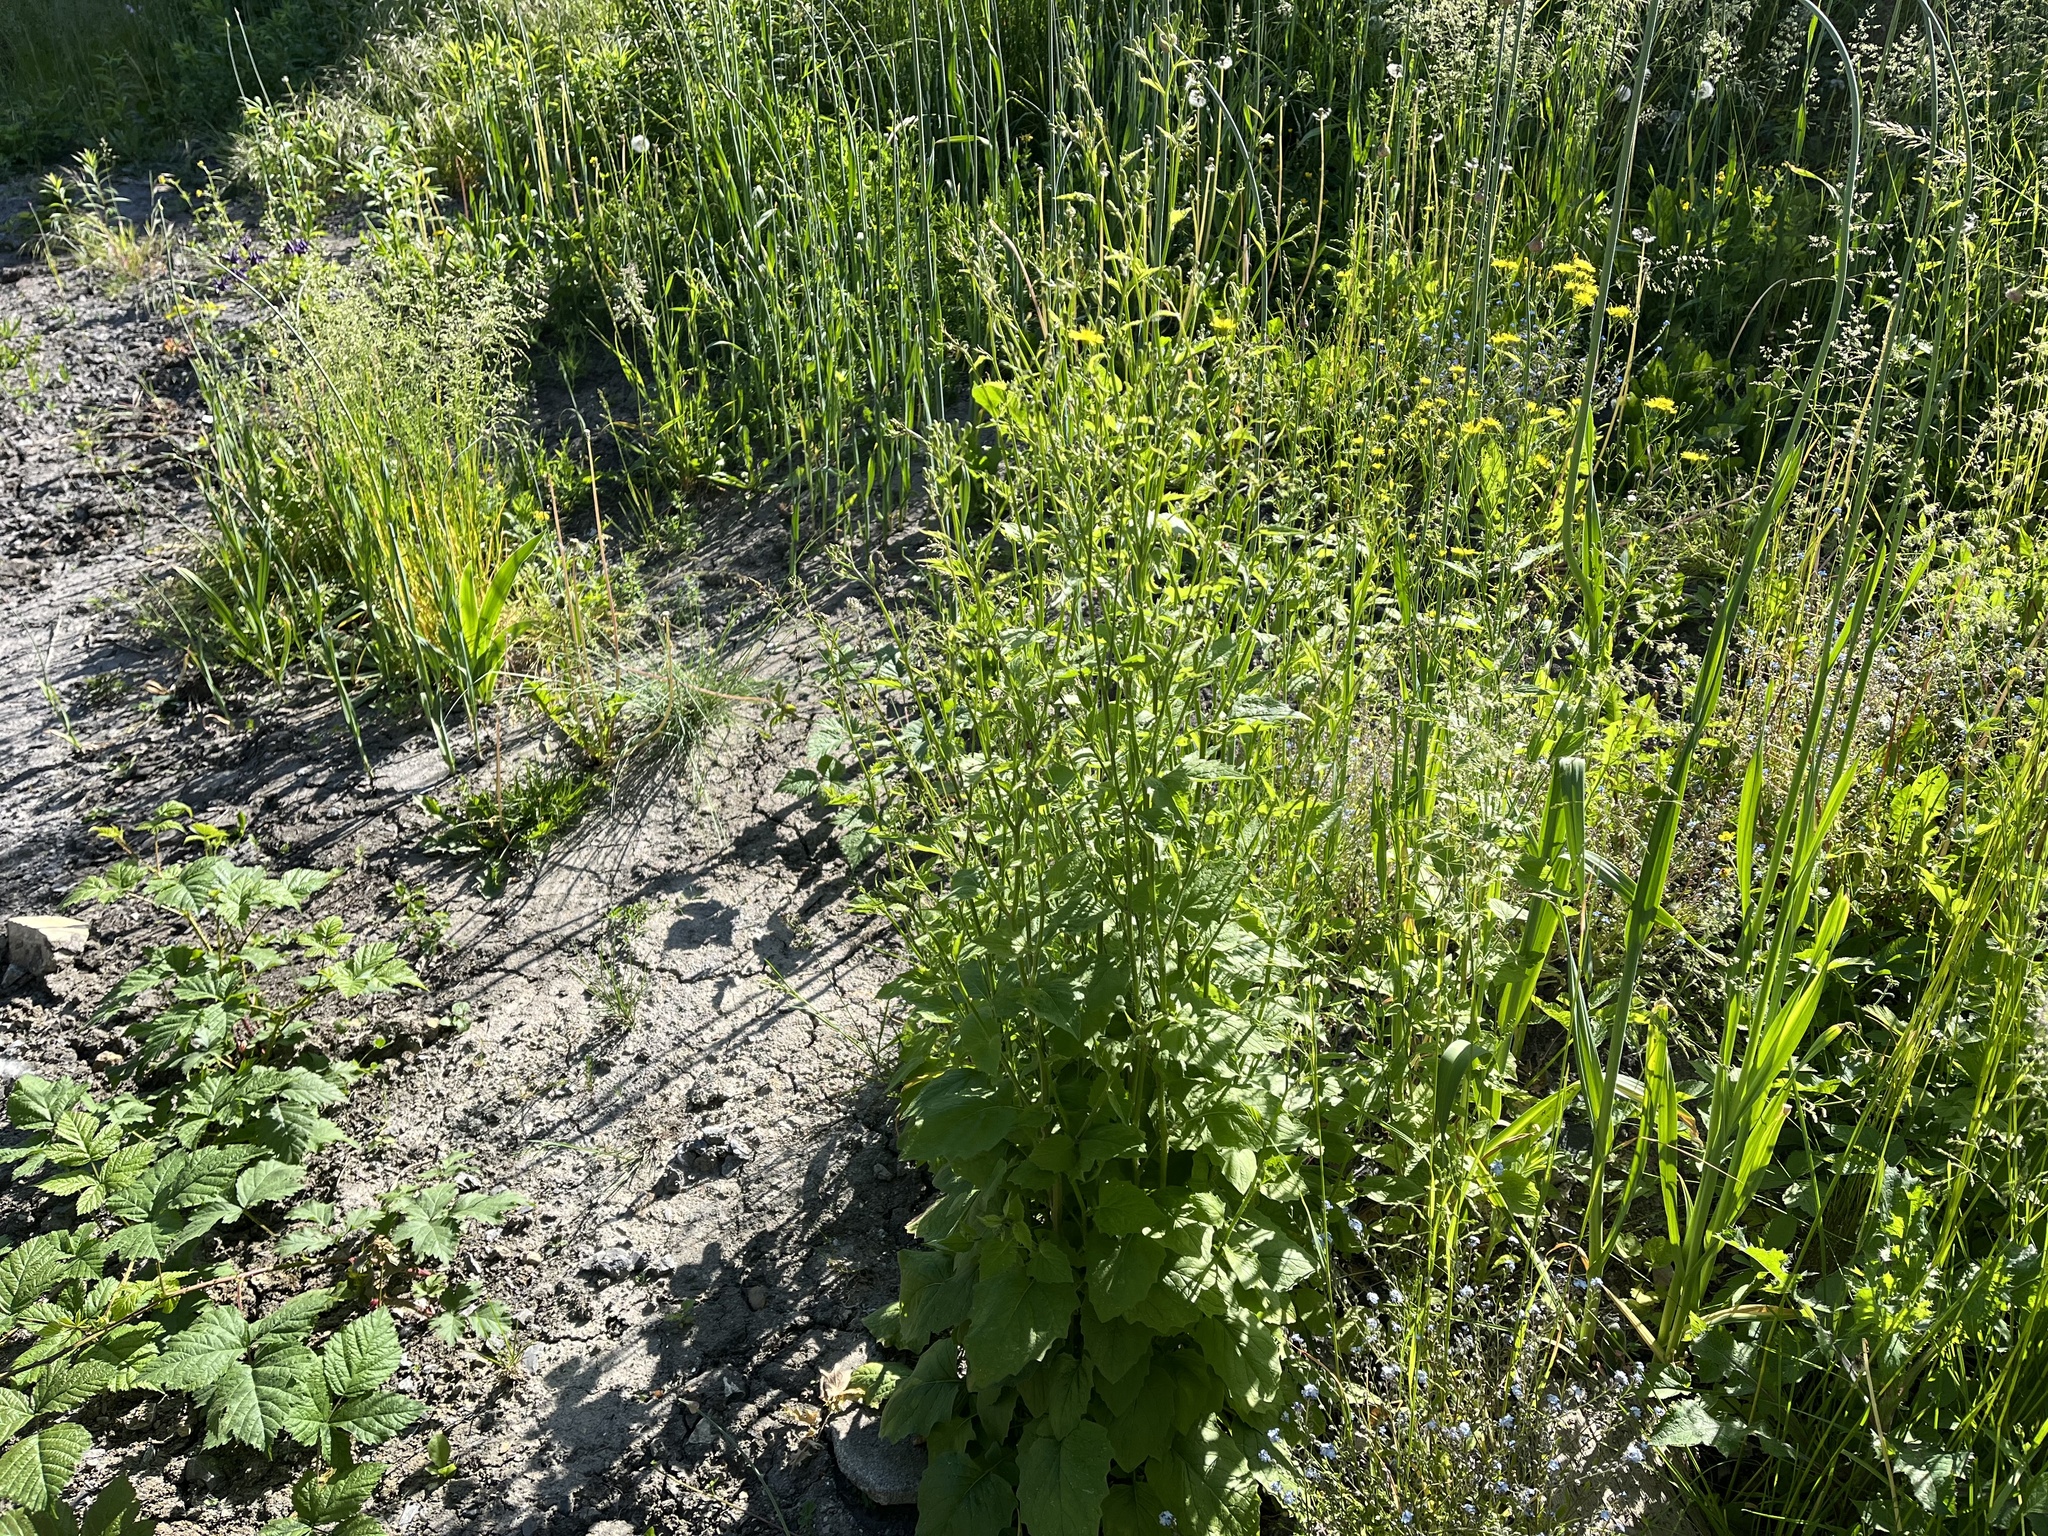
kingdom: Plantae
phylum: Tracheophyta
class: Magnoliopsida
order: Asterales
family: Asteraceae
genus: Lapsana
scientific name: Lapsana communis
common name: Nipplewort
